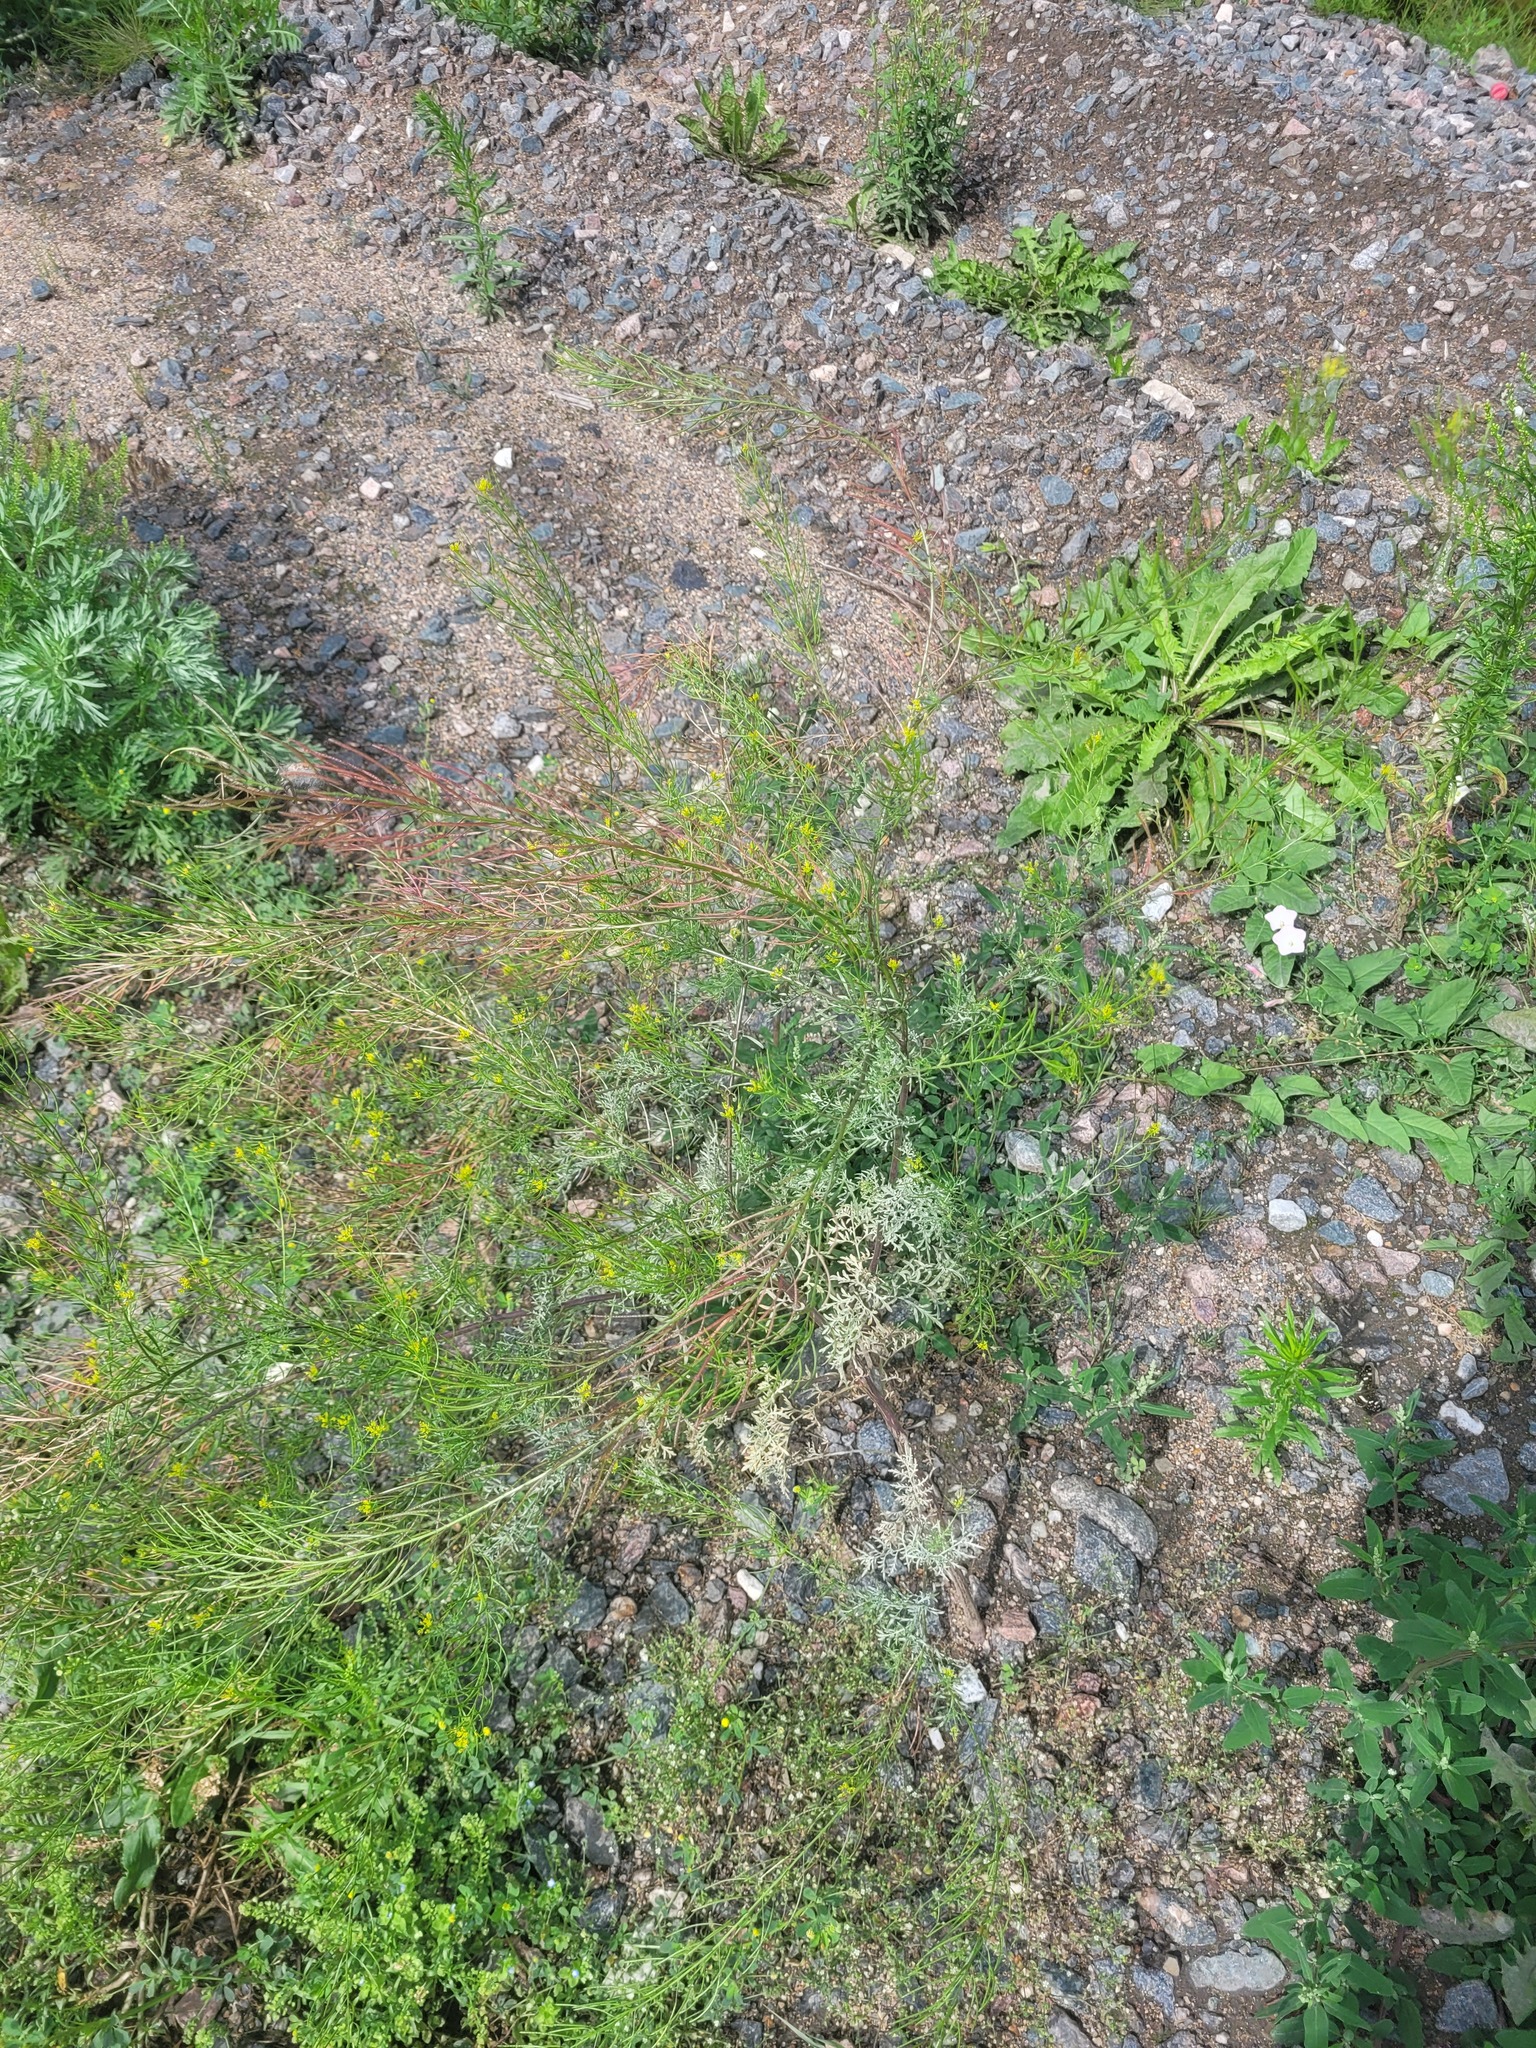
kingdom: Plantae
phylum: Tracheophyta
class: Magnoliopsida
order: Brassicales
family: Brassicaceae
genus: Descurainia
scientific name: Descurainia sophia
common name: Flixweed
